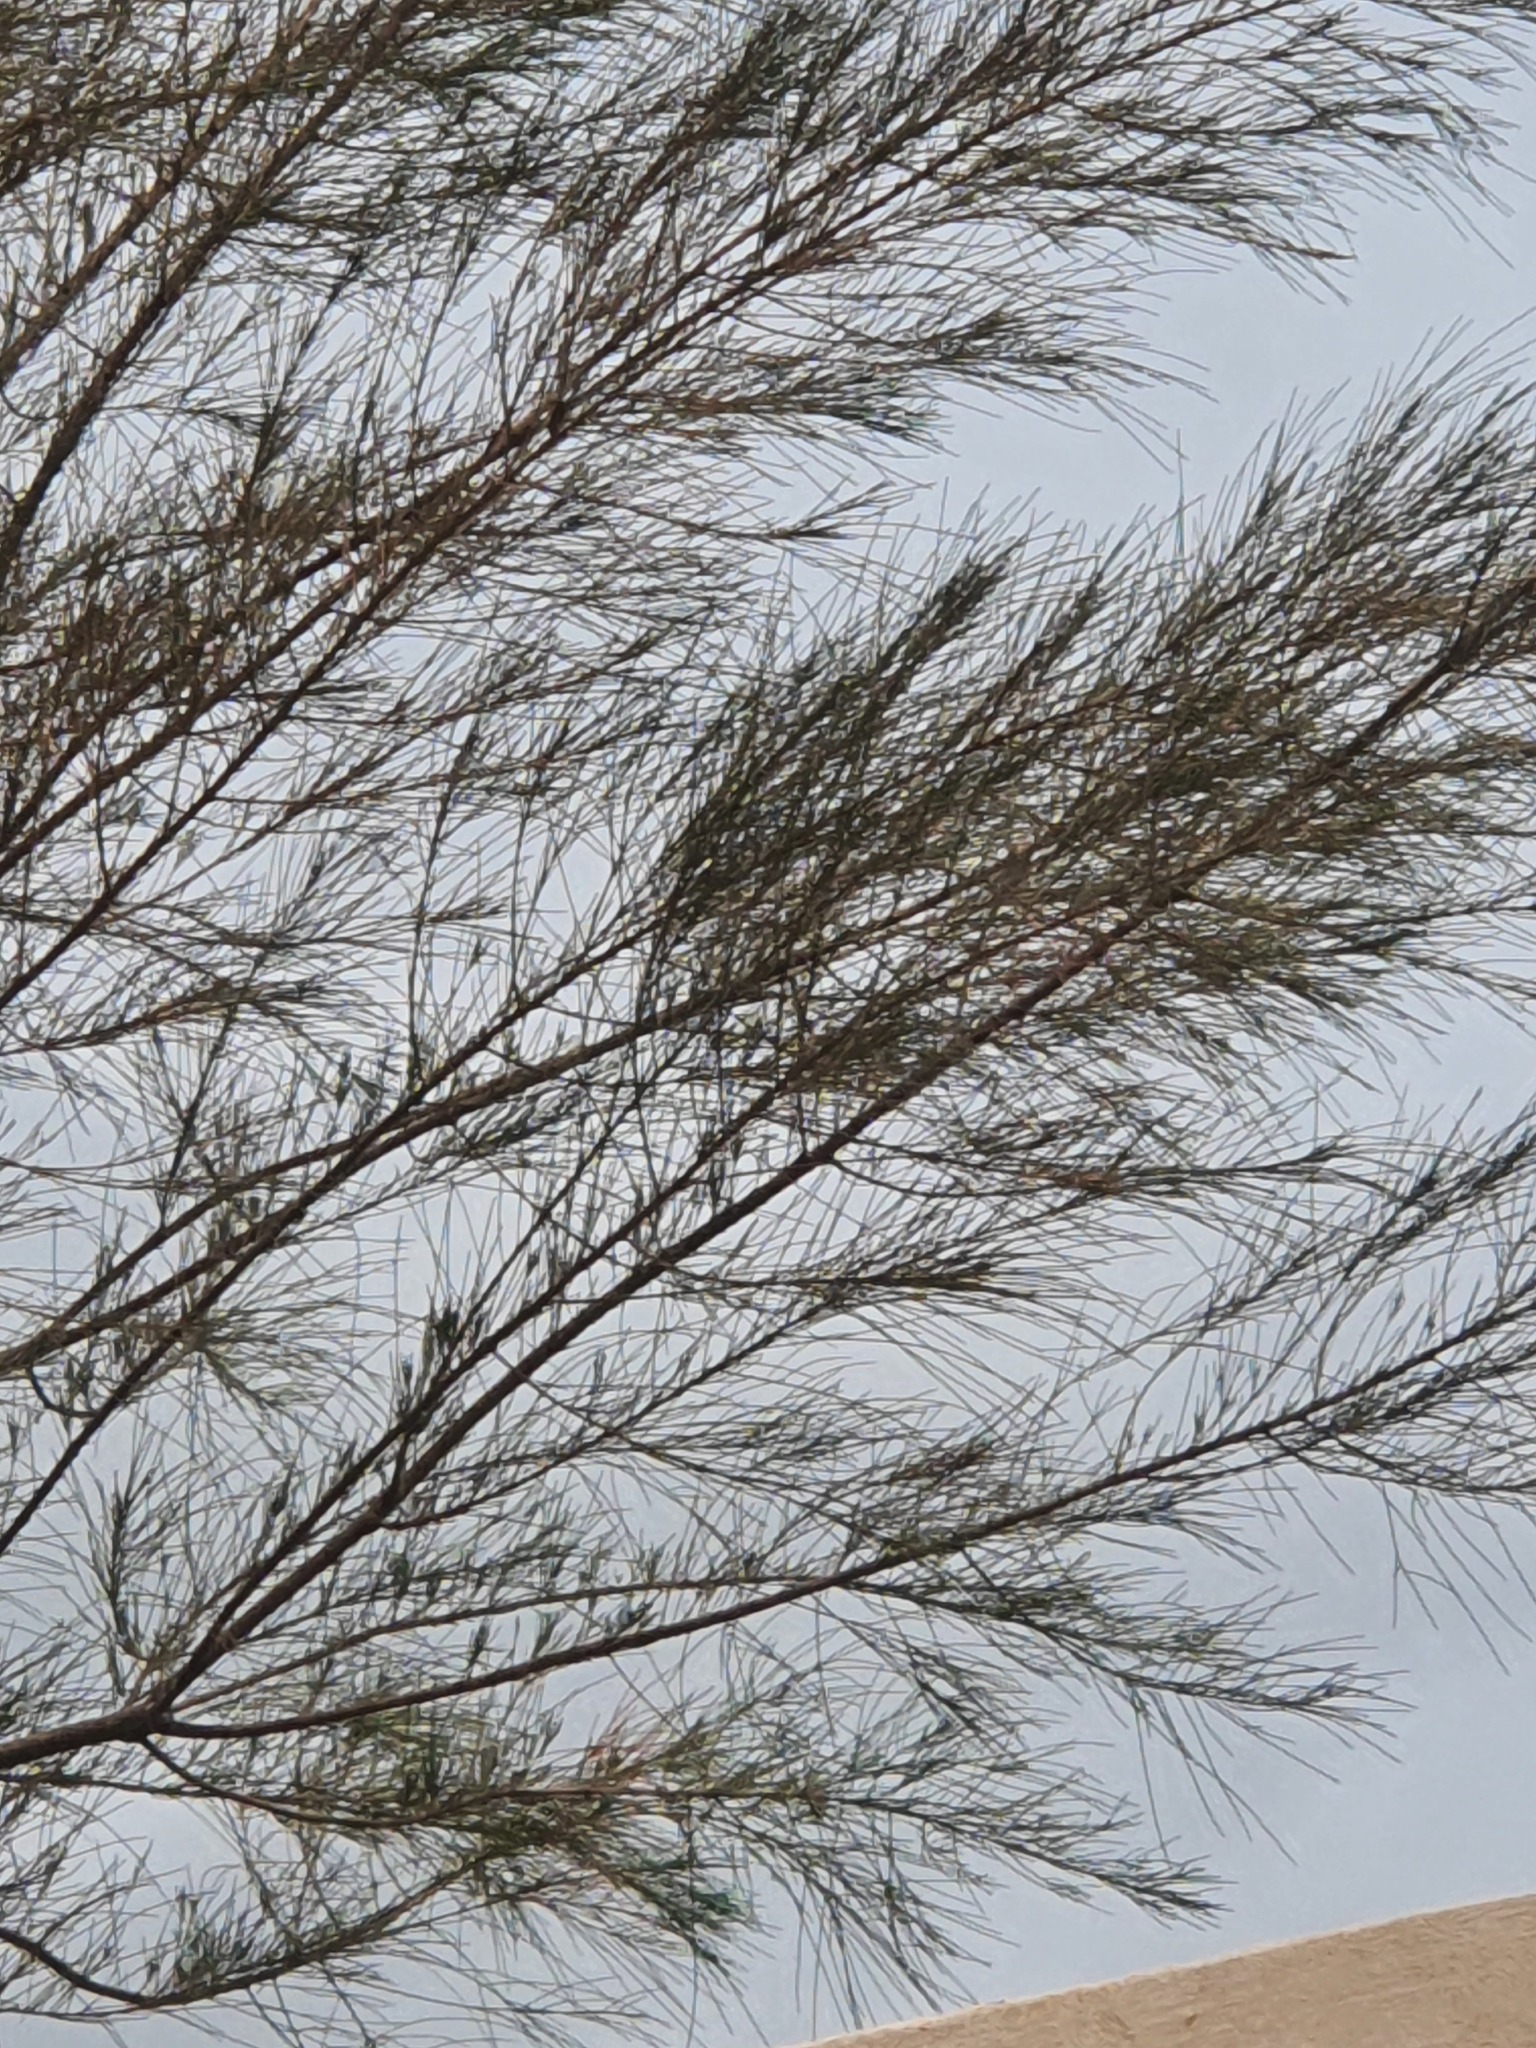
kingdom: Plantae
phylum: Tracheophyta
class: Magnoliopsida
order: Fagales
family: Casuarinaceae
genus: Casuarina
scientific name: Casuarina equisetifolia
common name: Beach sheoak
